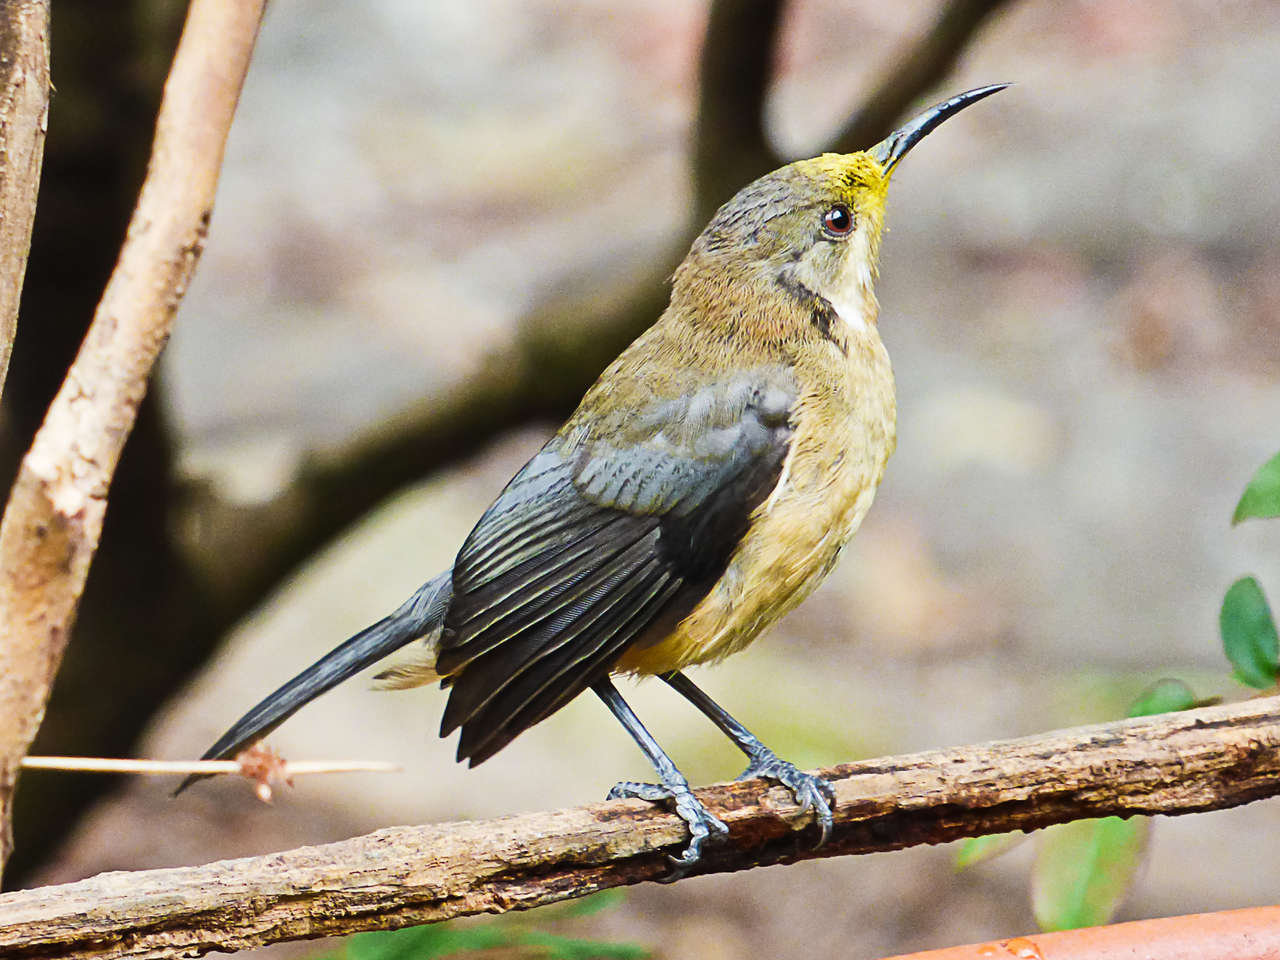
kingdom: Animalia
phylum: Chordata
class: Aves
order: Passeriformes
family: Meliphagidae
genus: Acanthorhynchus
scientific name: Acanthorhynchus tenuirostris
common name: Eastern spinebill
